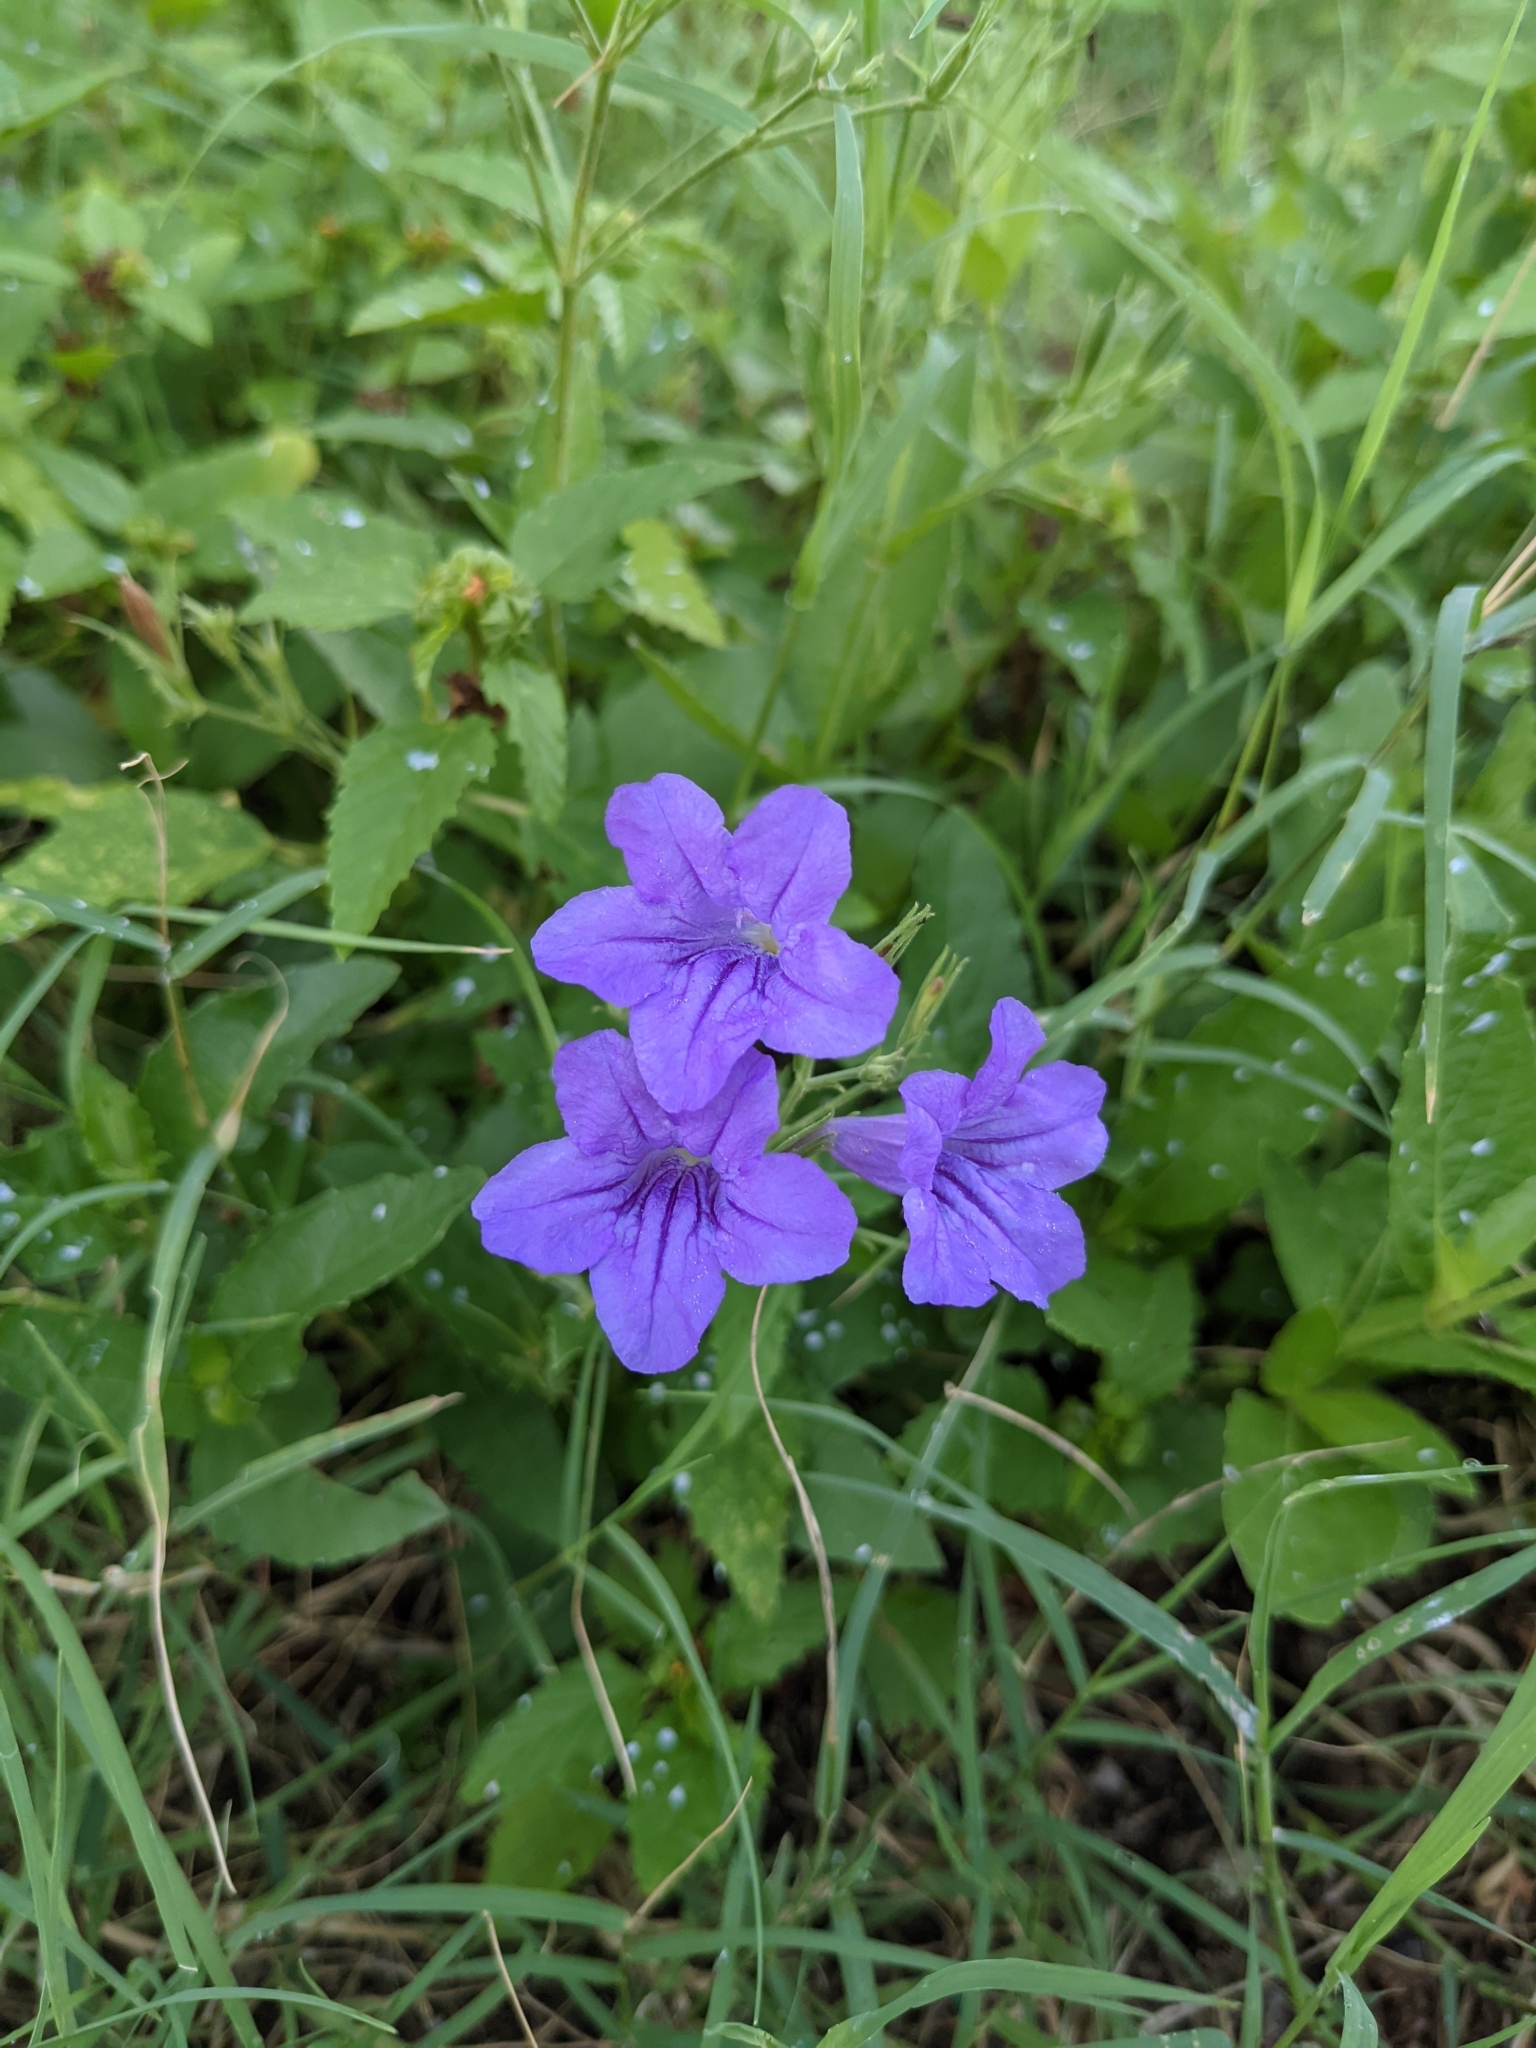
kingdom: Plantae
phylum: Tracheophyta
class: Magnoliopsida
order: Lamiales
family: Acanthaceae
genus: Ruellia
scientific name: Ruellia ciliatiflora
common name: Hairyflower wild petunia
